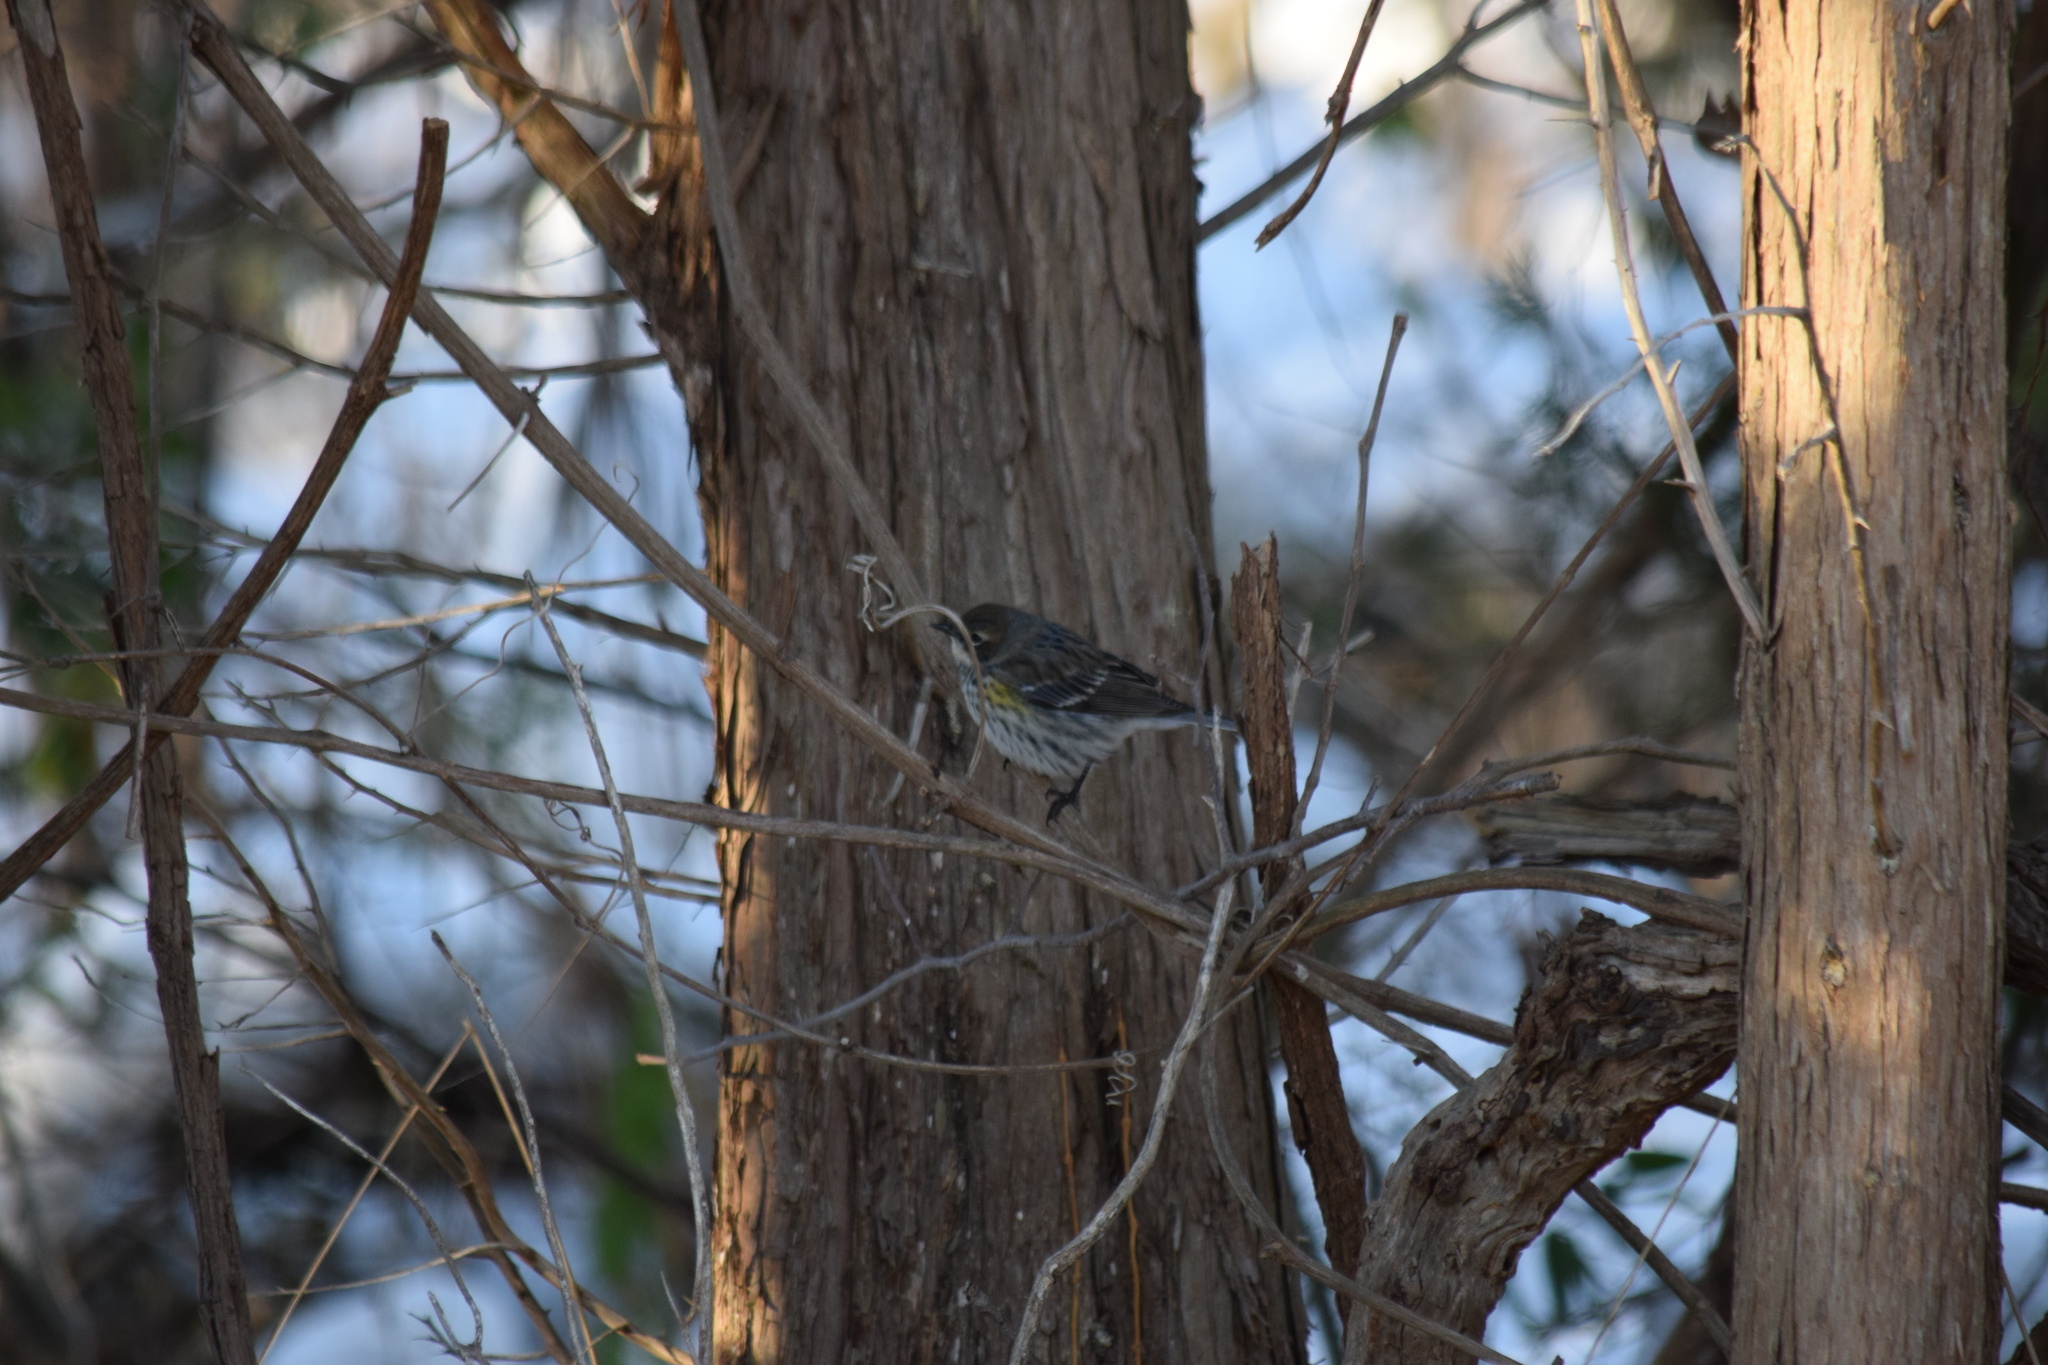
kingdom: Animalia
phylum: Chordata
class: Aves
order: Passeriformes
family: Parulidae
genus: Setophaga
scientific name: Setophaga coronata
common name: Myrtle warbler
